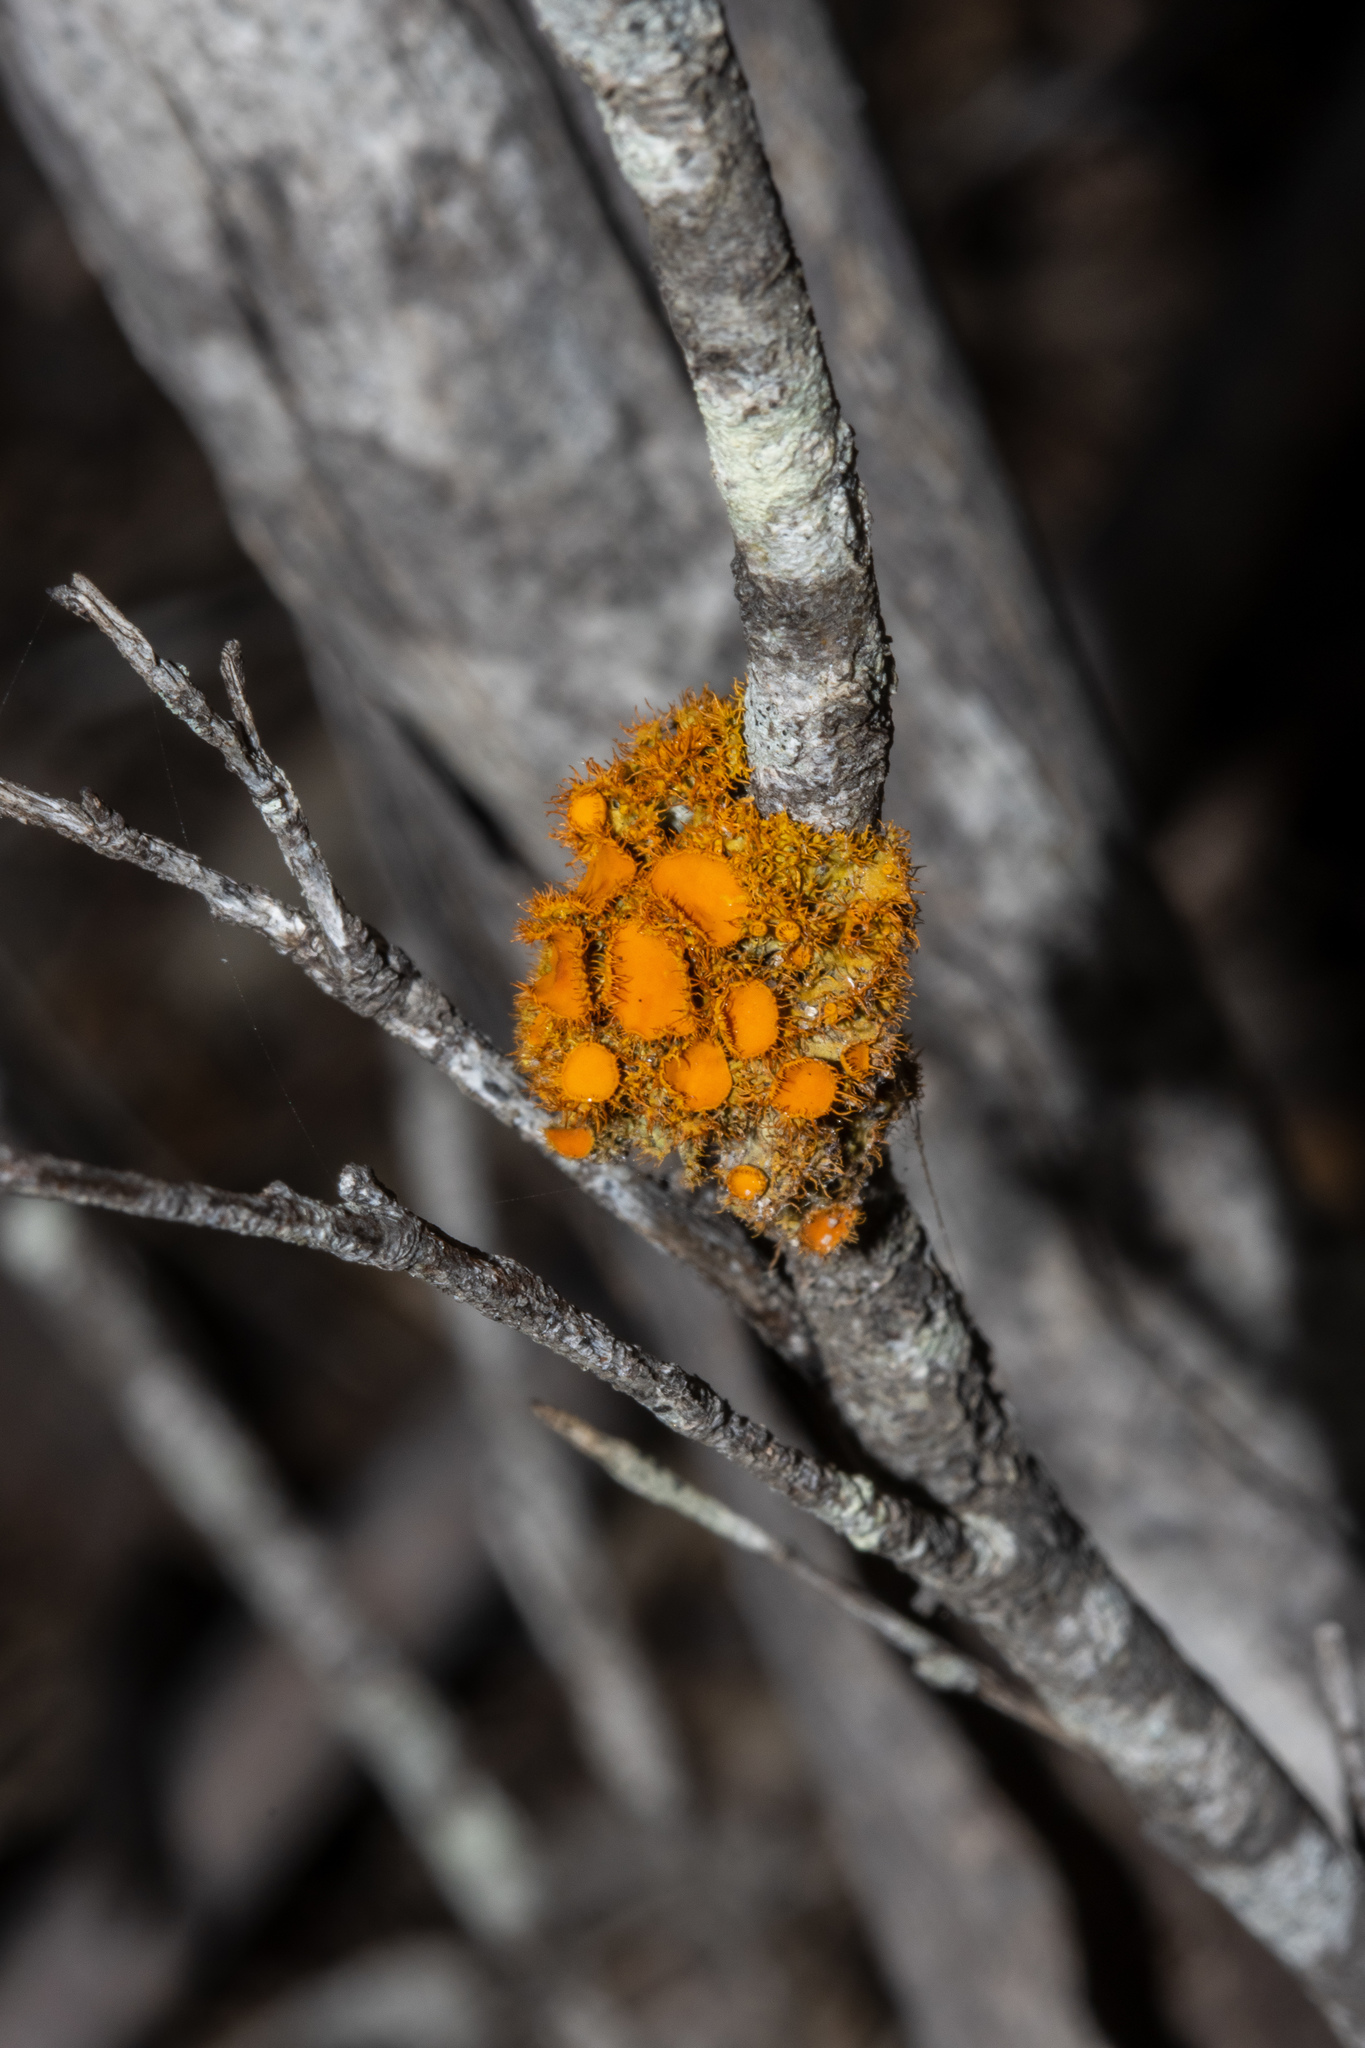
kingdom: Fungi
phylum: Ascomycota
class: Lecanoromycetes
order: Teloschistales
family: Teloschistaceae
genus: Niorma
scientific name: Niorma chrysophthalma
